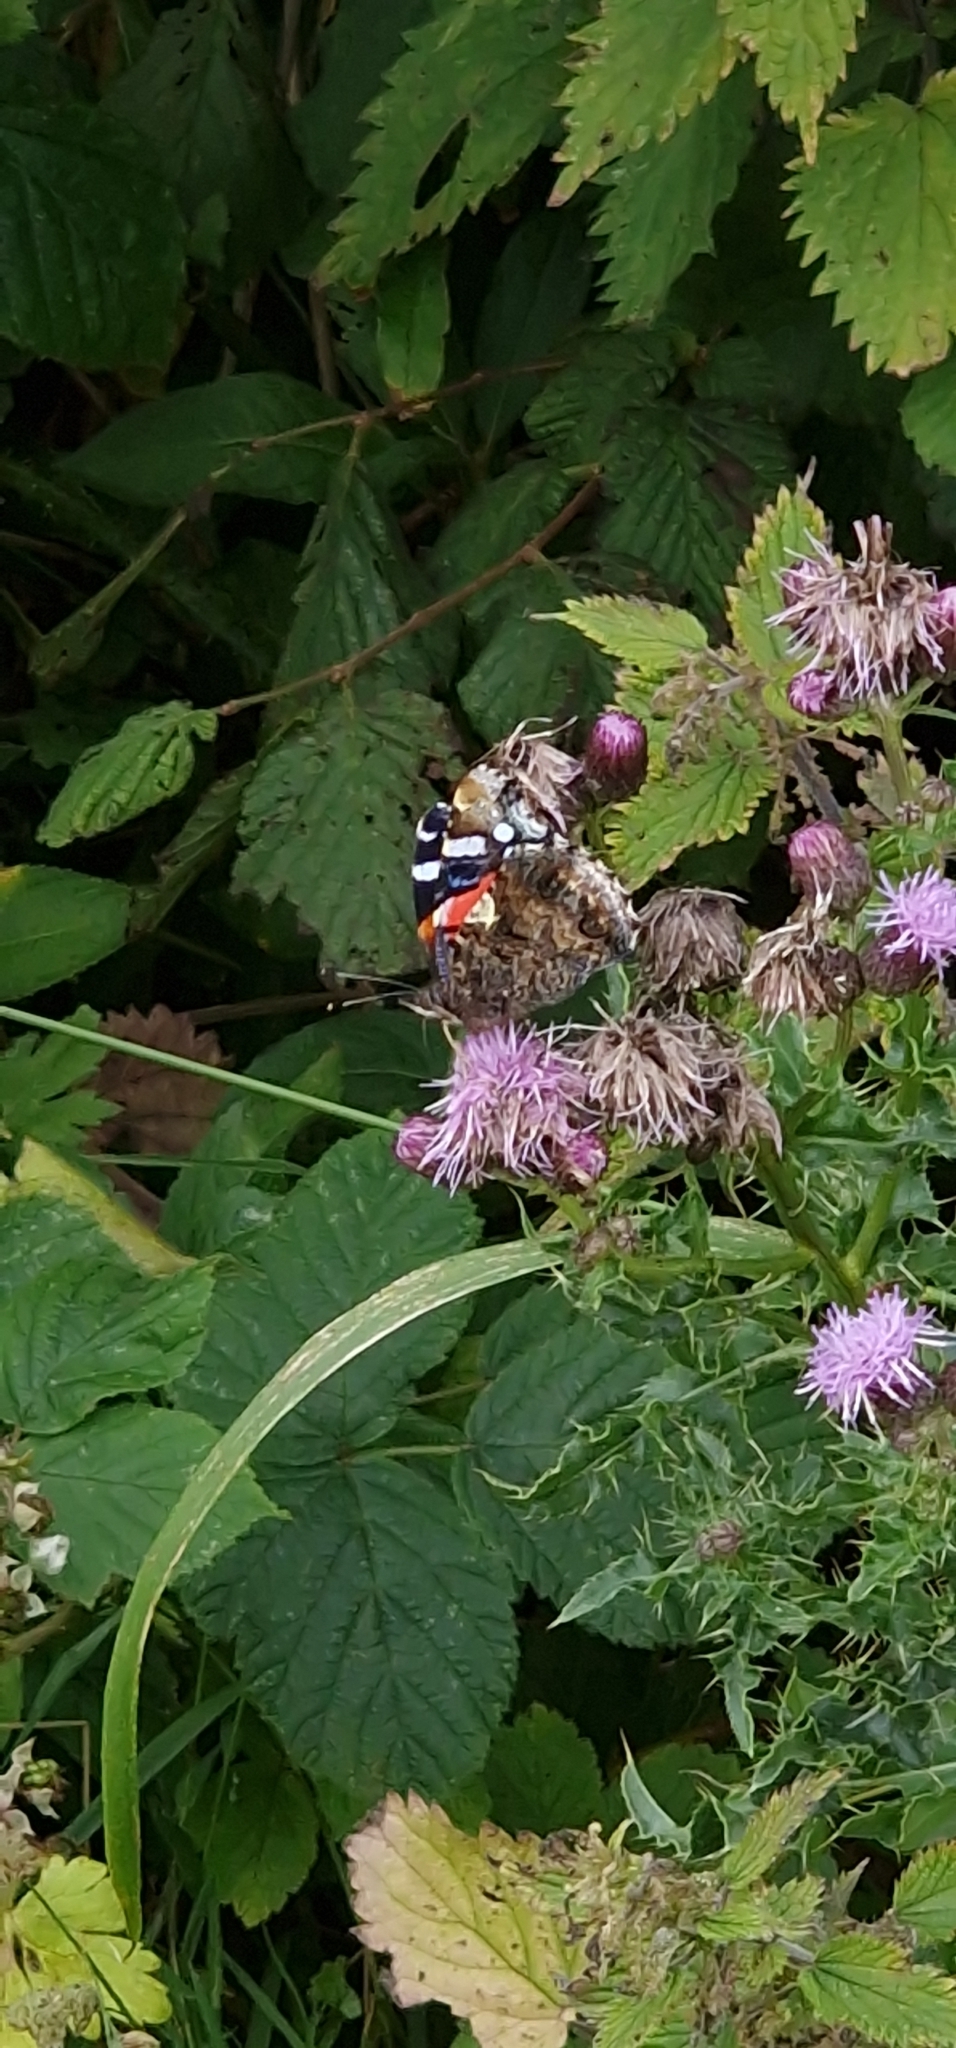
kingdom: Animalia
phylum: Arthropoda
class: Insecta
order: Lepidoptera
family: Nymphalidae
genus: Vanessa
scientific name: Vanessa atalanta
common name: Red admiral
